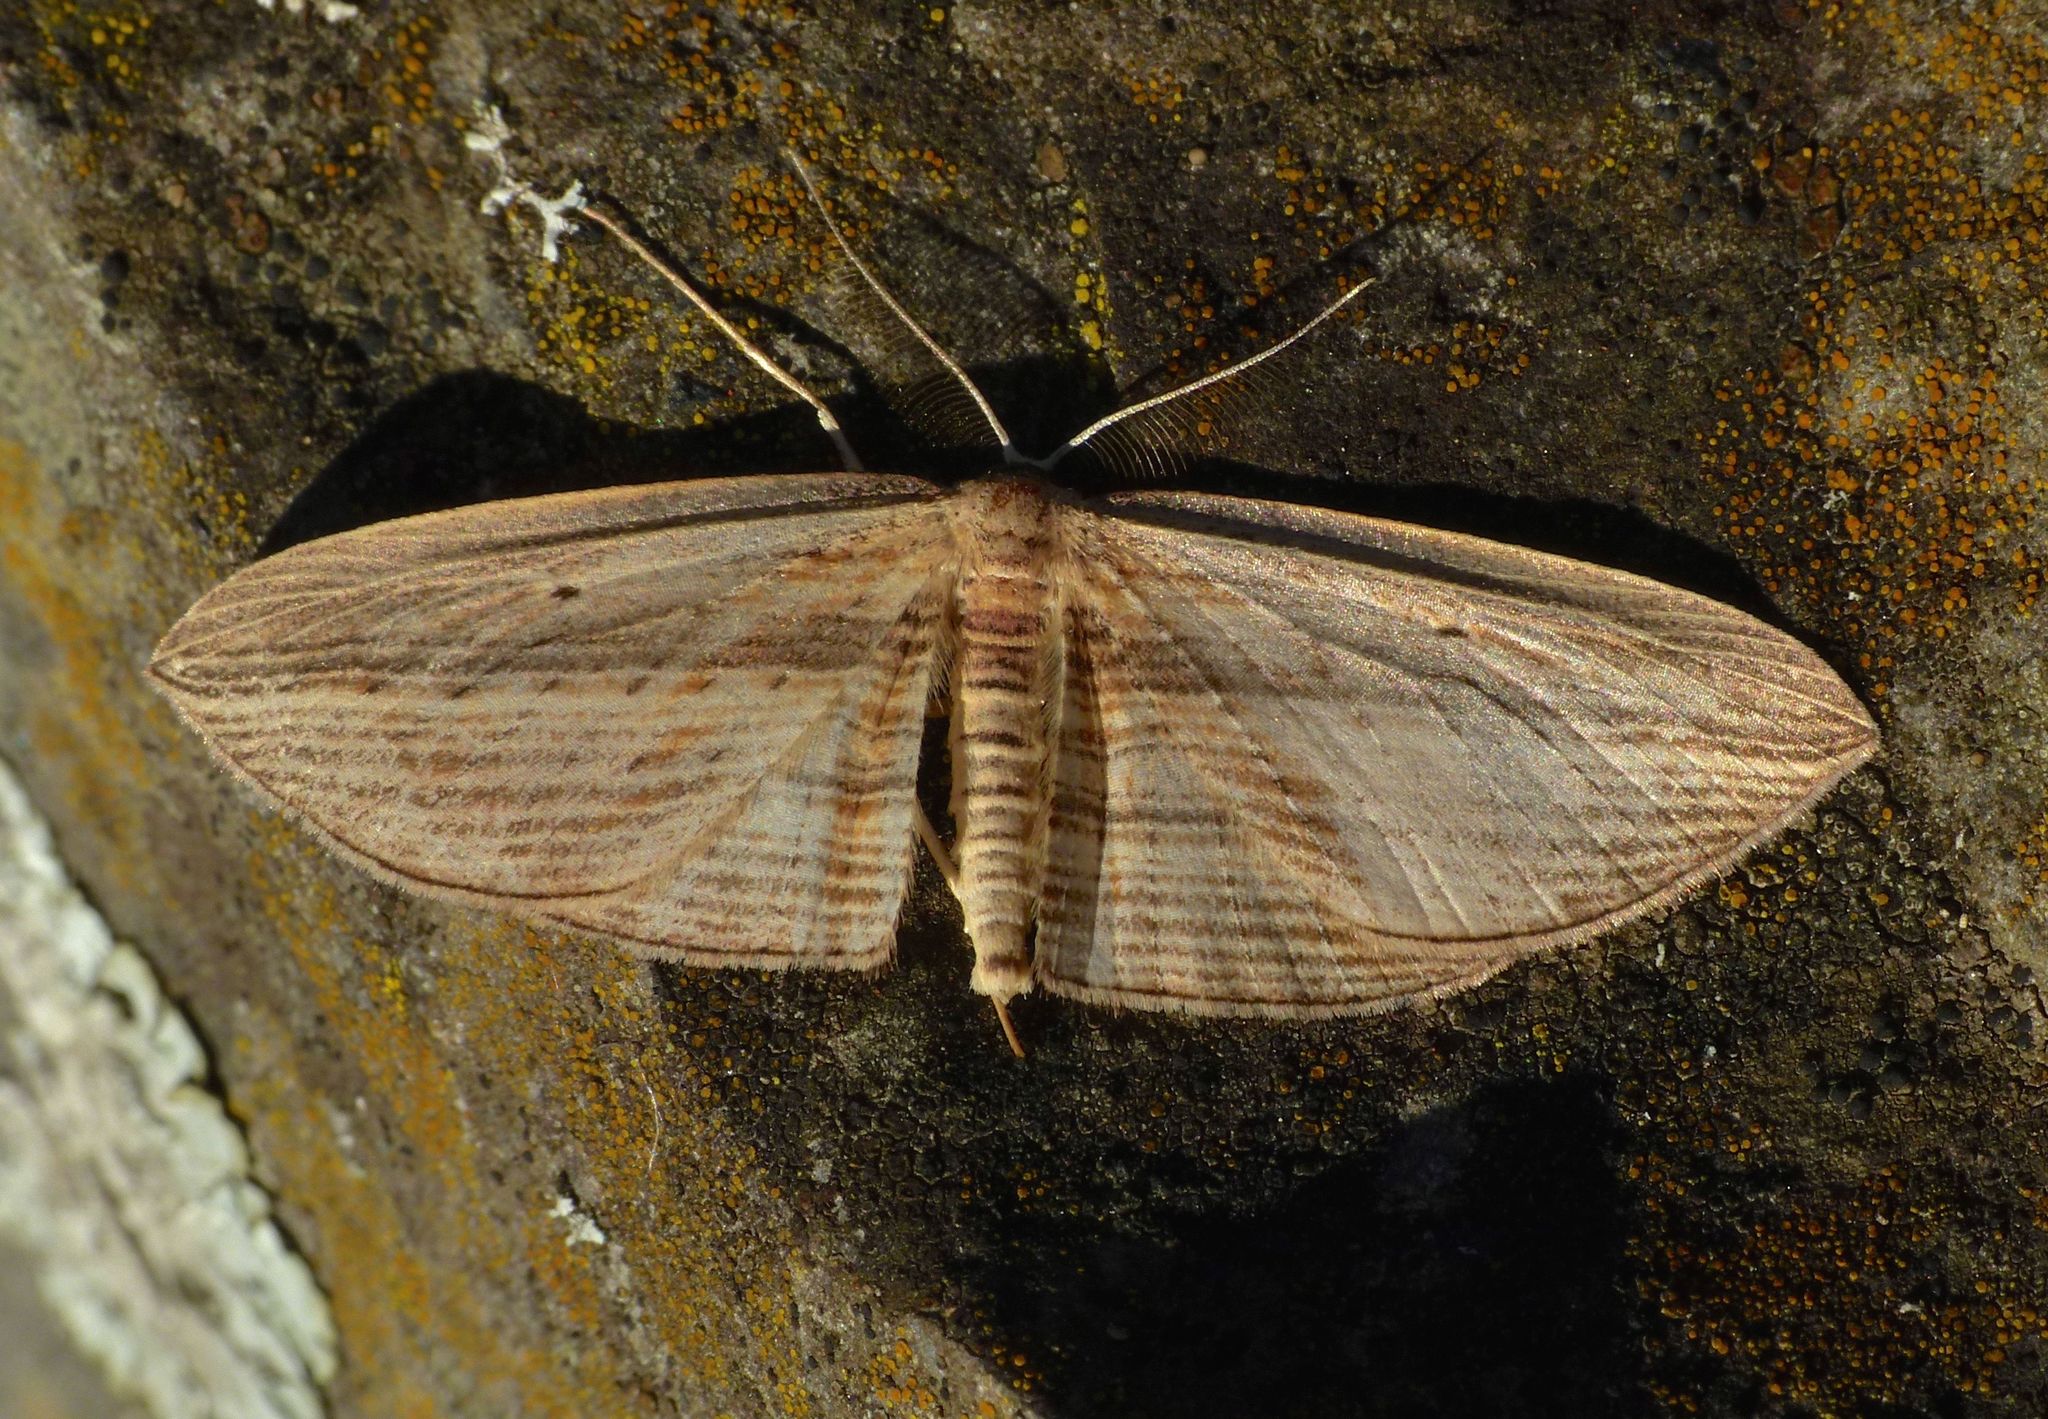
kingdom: Animalia
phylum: Arthropoda
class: Insecta
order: Lepidoptera
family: Geometridae
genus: Epiphryne
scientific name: Epiphryne verriculata
